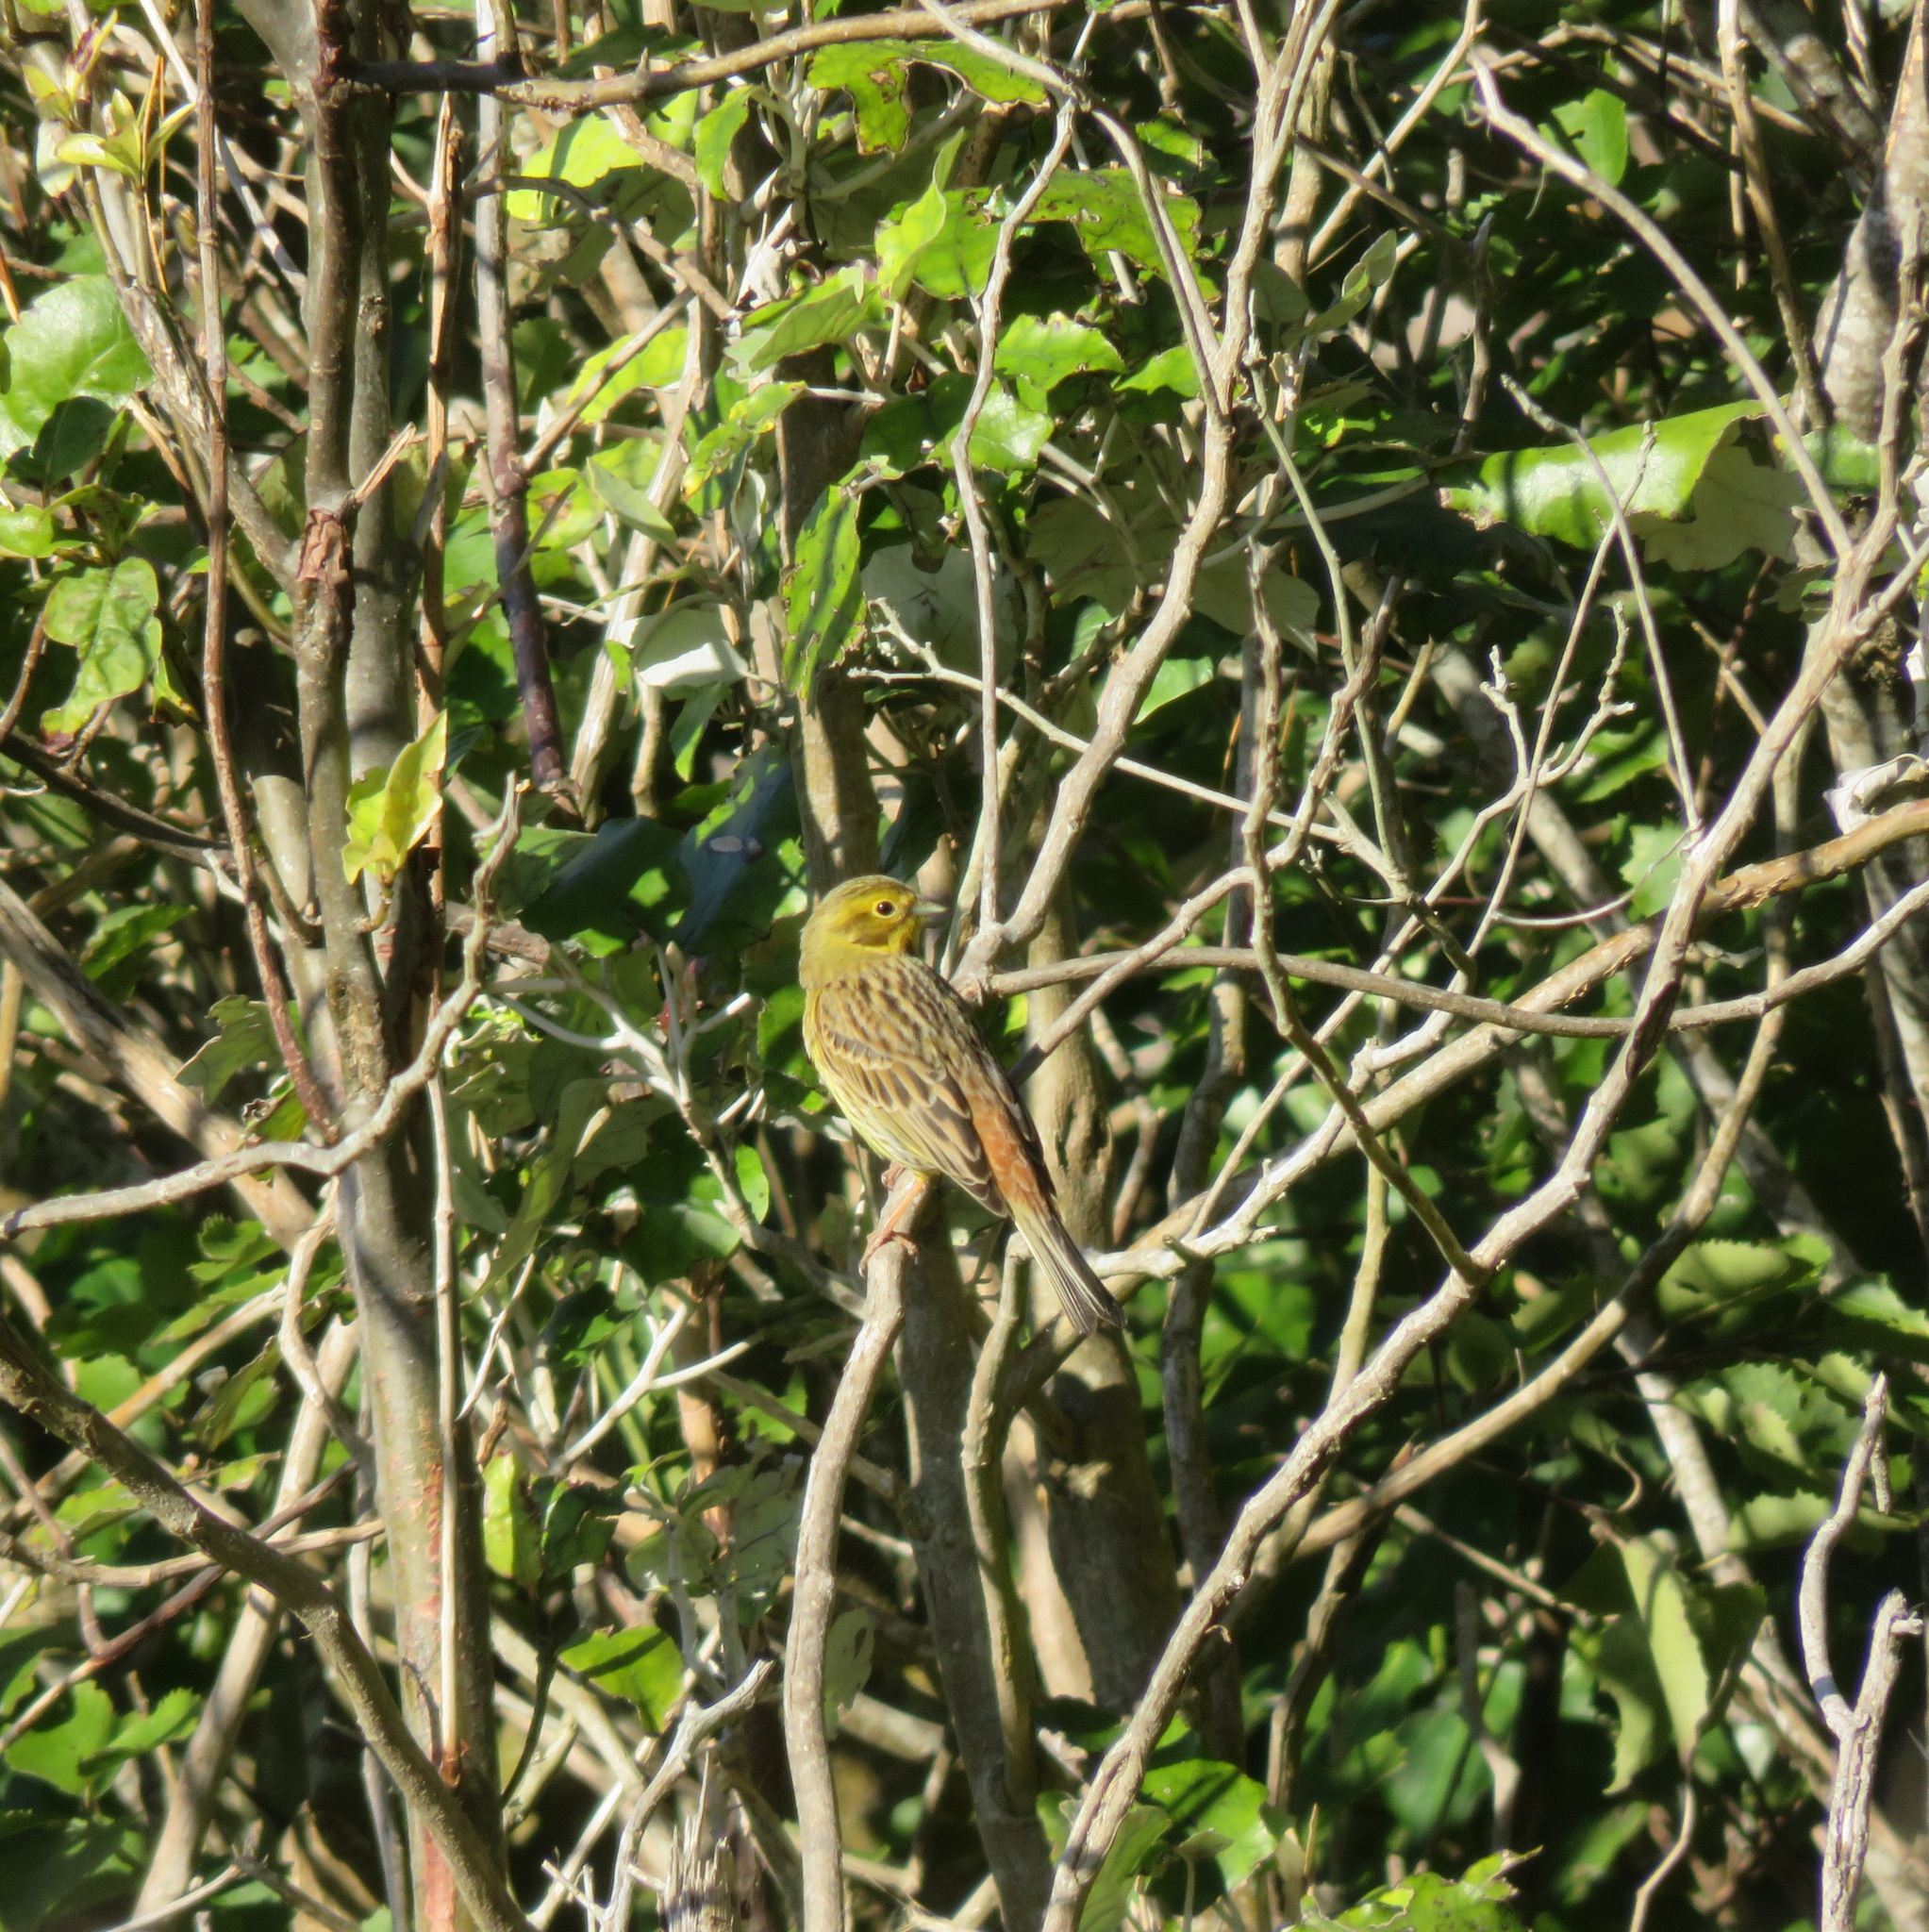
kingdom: Animalia
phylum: Chordata
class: Aves
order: Passeriformes
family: Emberizidae
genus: Emberiza
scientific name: Emberiza citrinella
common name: Yellowhammer
